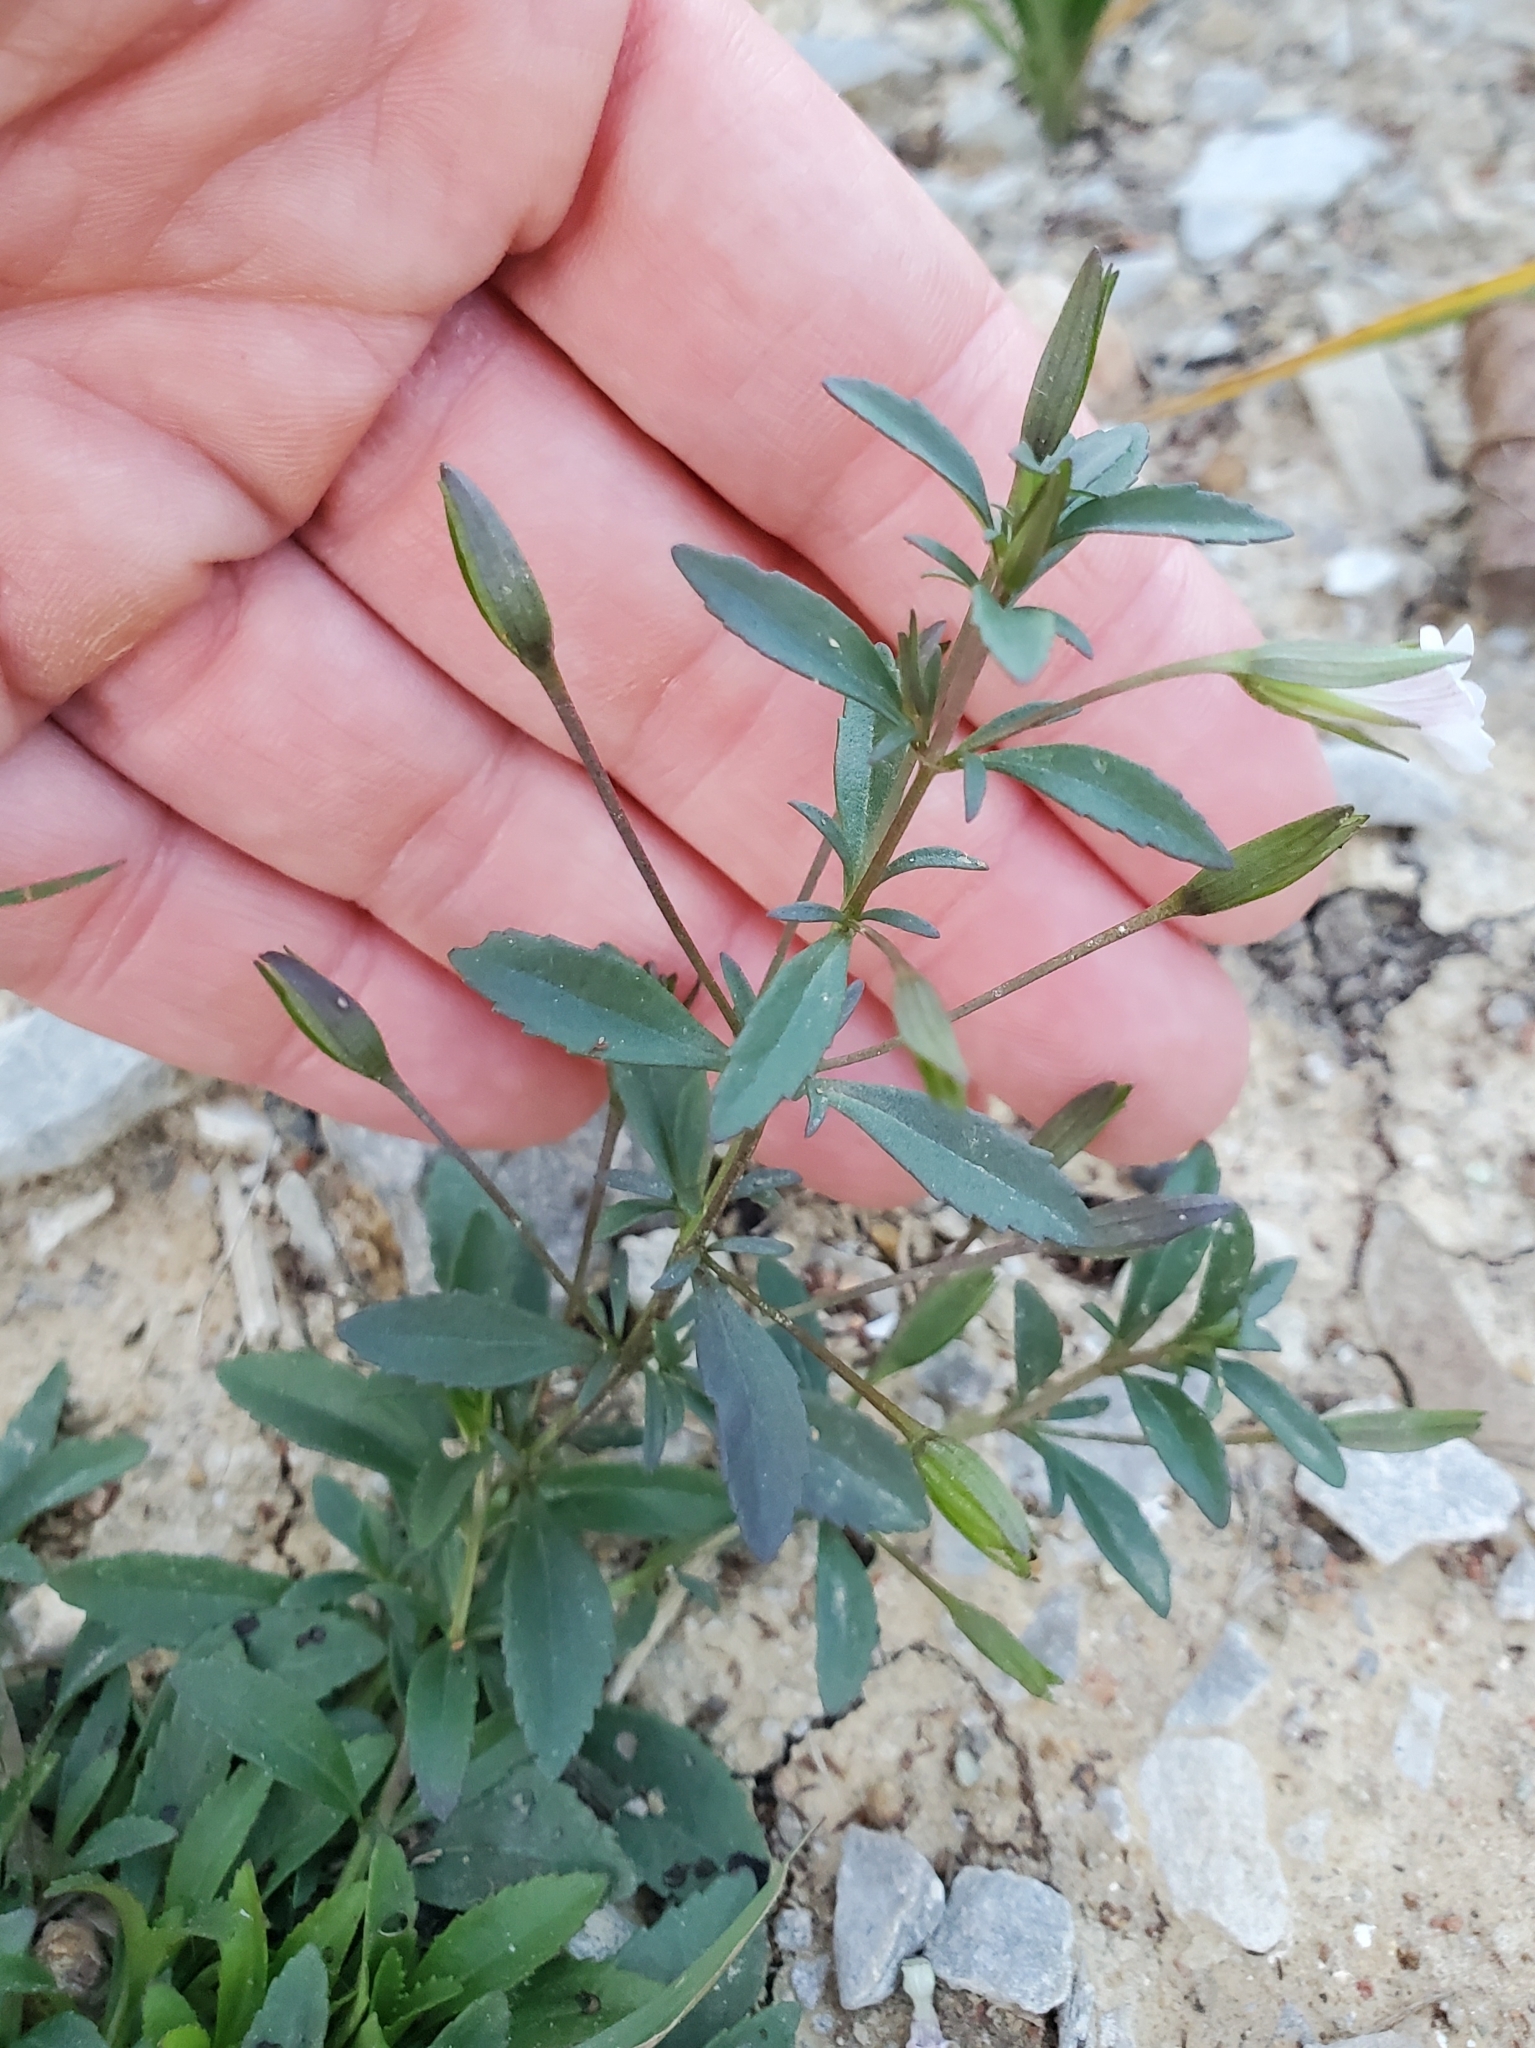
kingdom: Plantae
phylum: Tracheophyta
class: Magnoliopsida
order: Lamiales
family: Plantaginaceae
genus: Mecardonia
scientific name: Mecardonia acuminata
